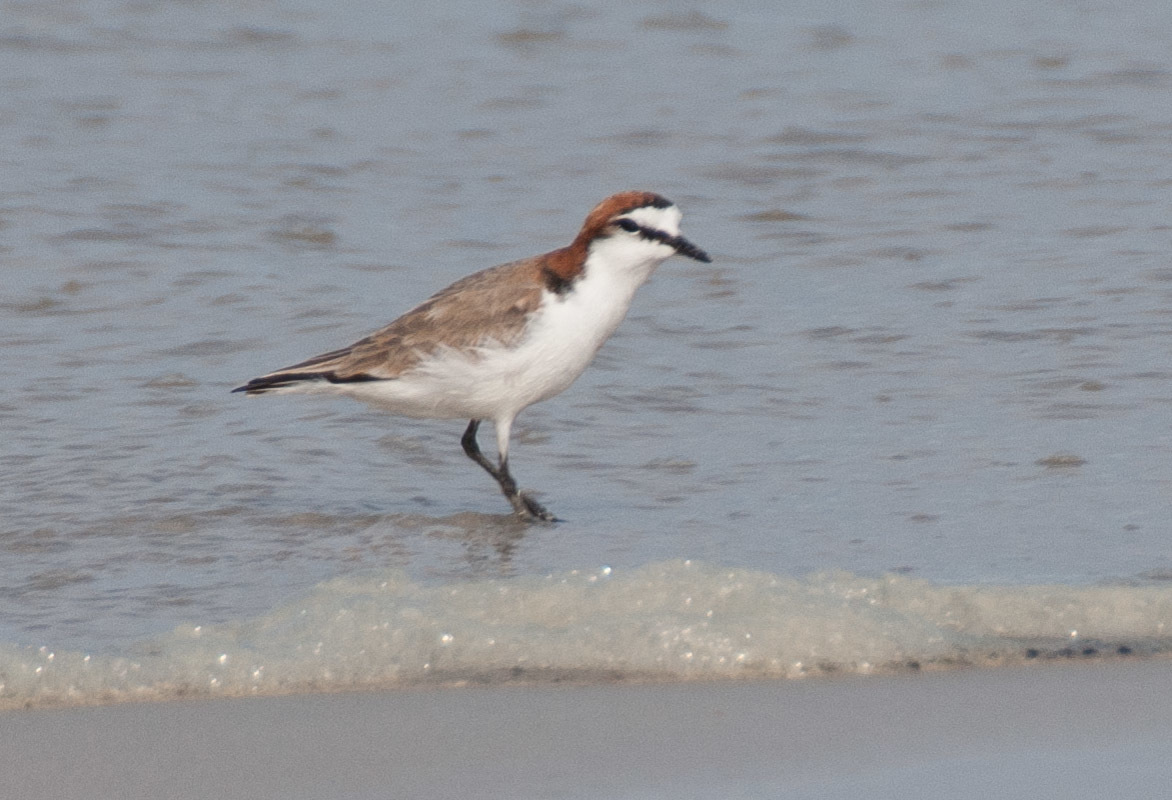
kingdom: Animalia
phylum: Chordata
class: Aves
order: Charadriiformes
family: Charadriidae
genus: Anarhynchus
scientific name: Anarhynchus
